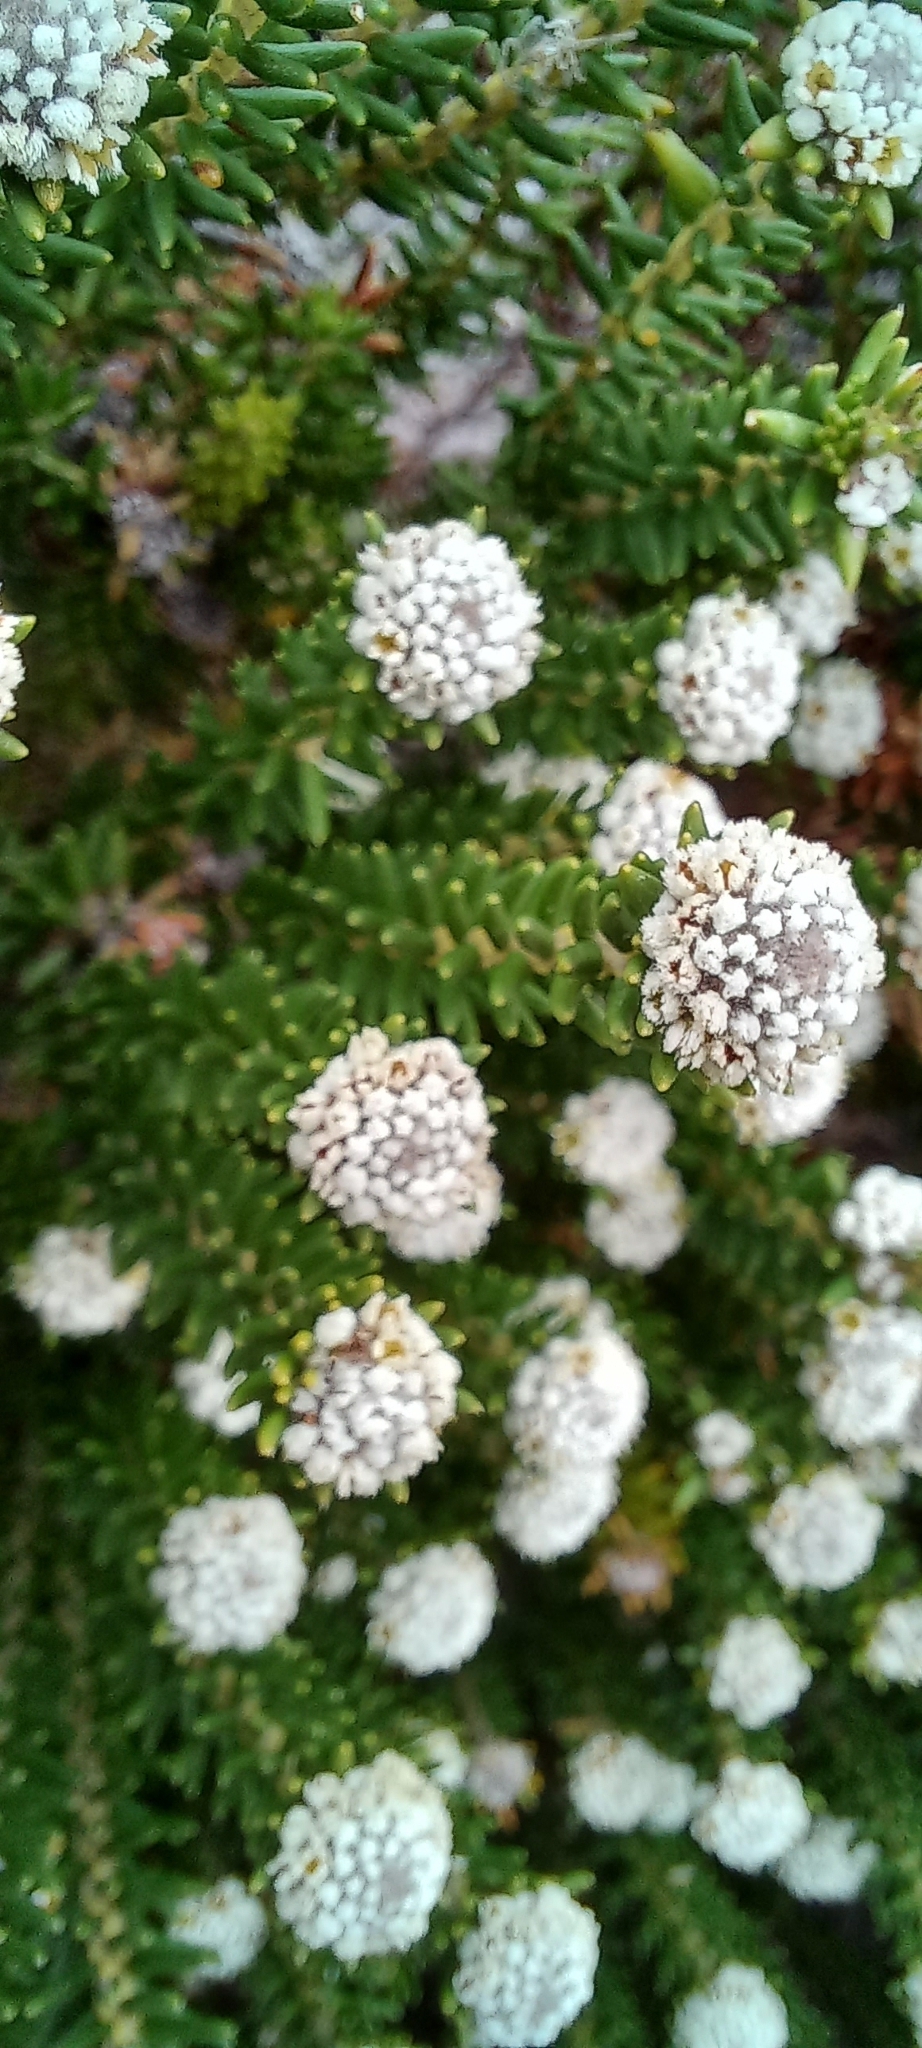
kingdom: Plantae
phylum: Tracheophyta
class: Magnoliopsida
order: Rosales
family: Rhamnaceae
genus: Phylica
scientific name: Phylica ericoides
